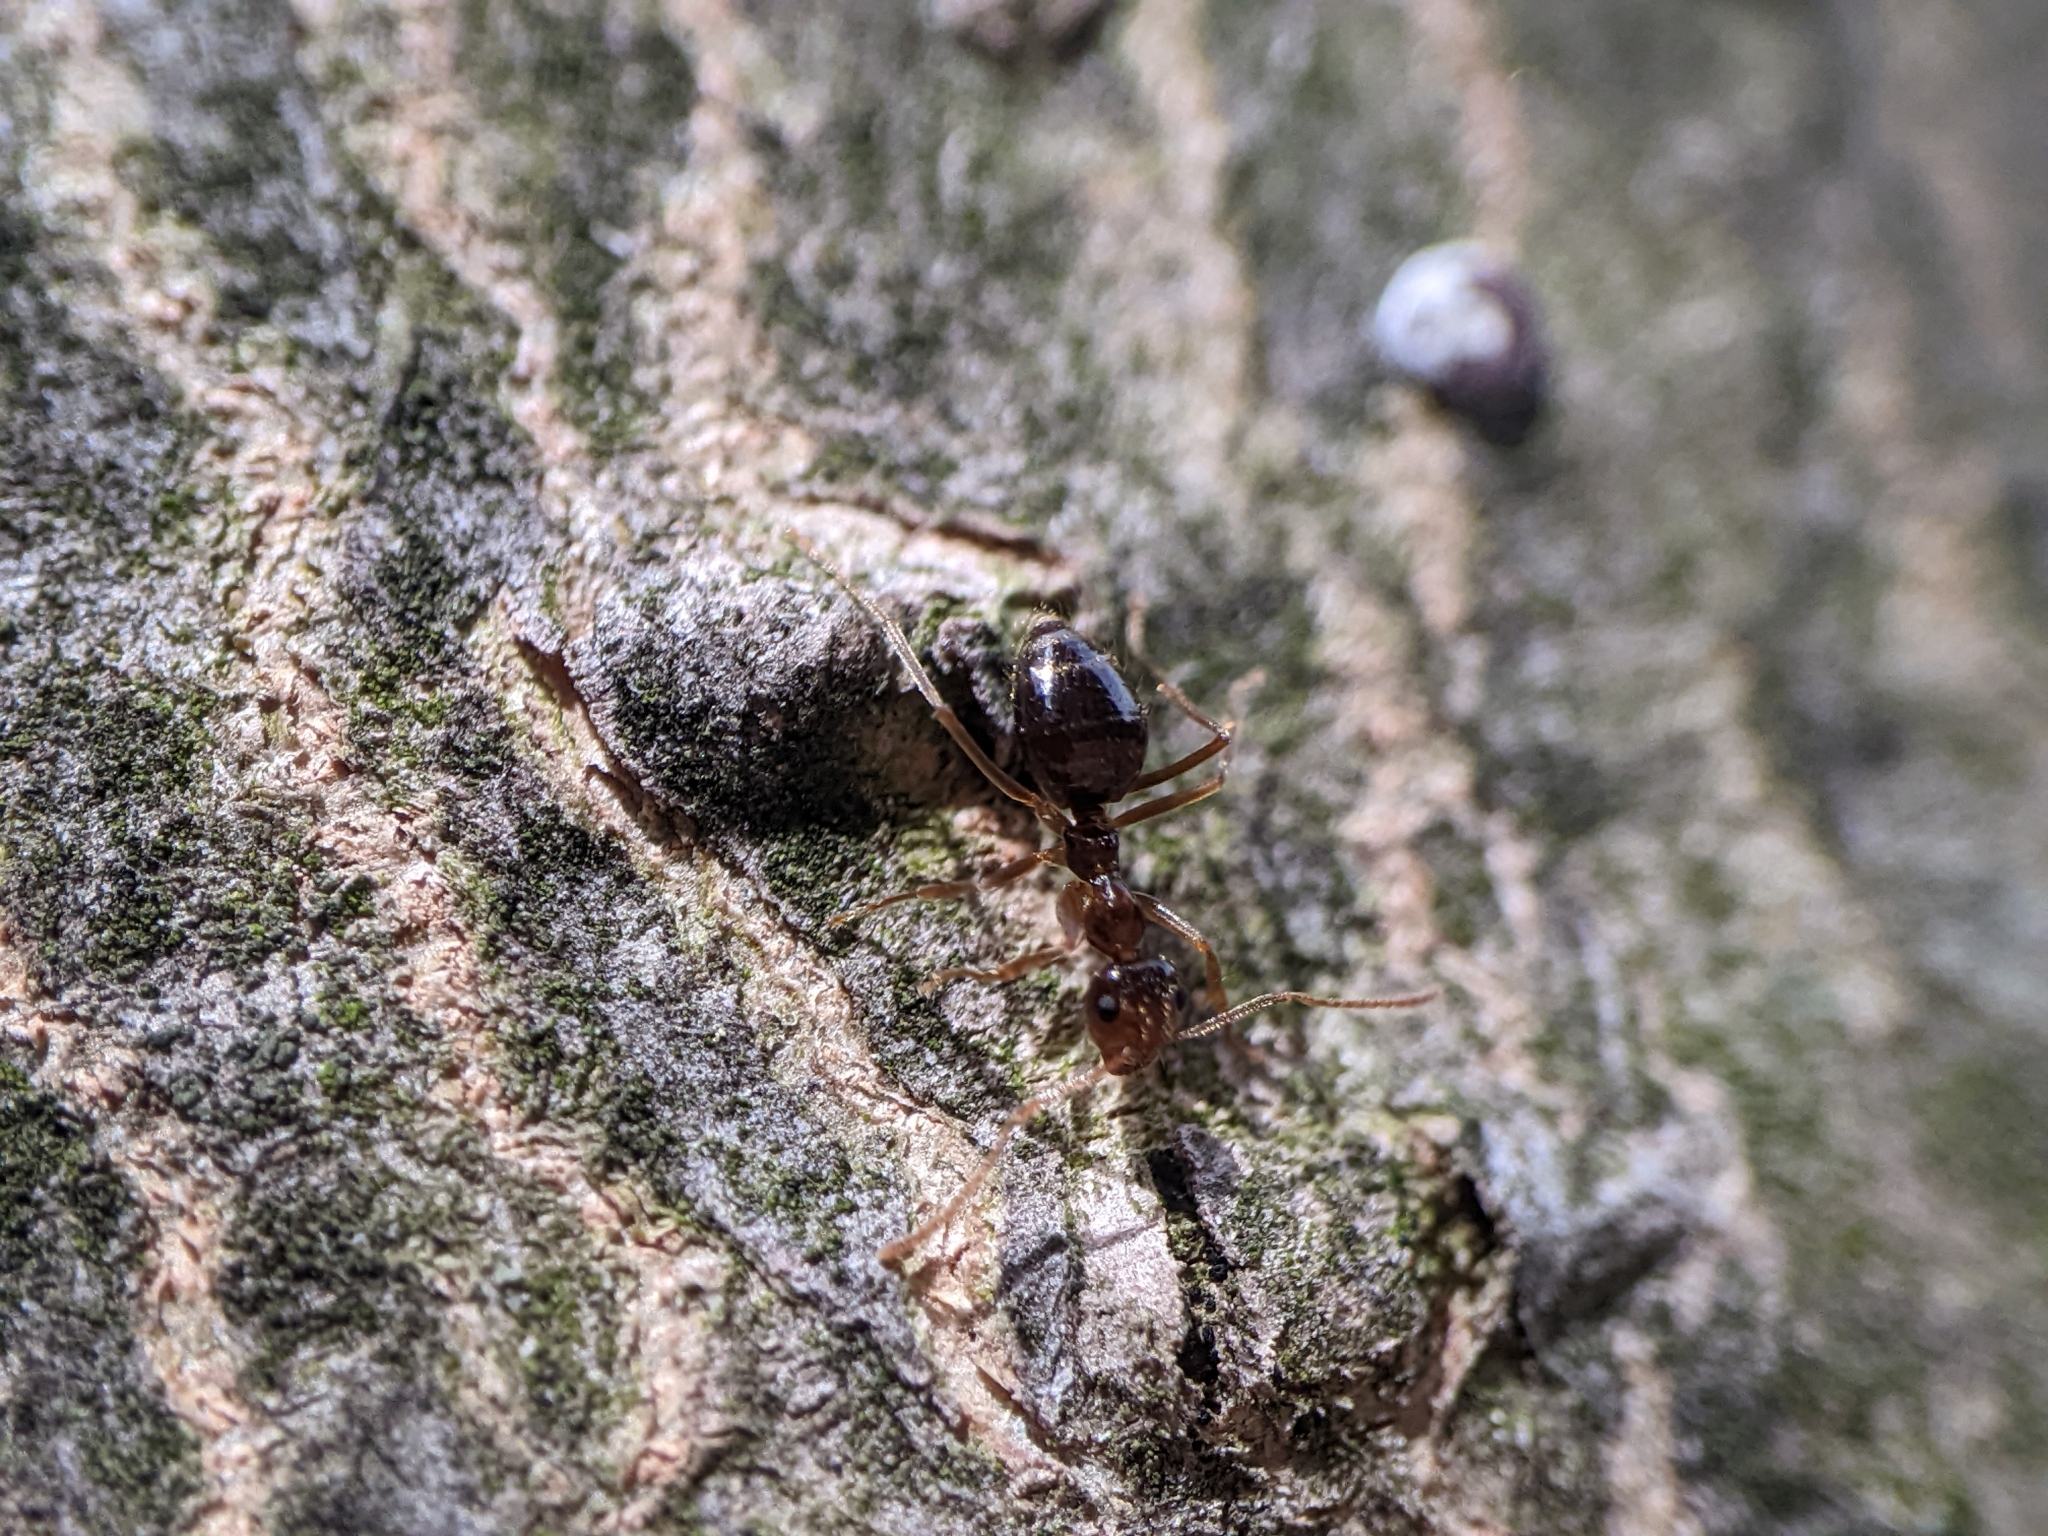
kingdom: Animalia
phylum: Arthropoda
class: Insecta
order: Hymenoptera
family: Formicidae
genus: Prenolepis
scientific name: Prenolepis imparis
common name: Small honey ant
